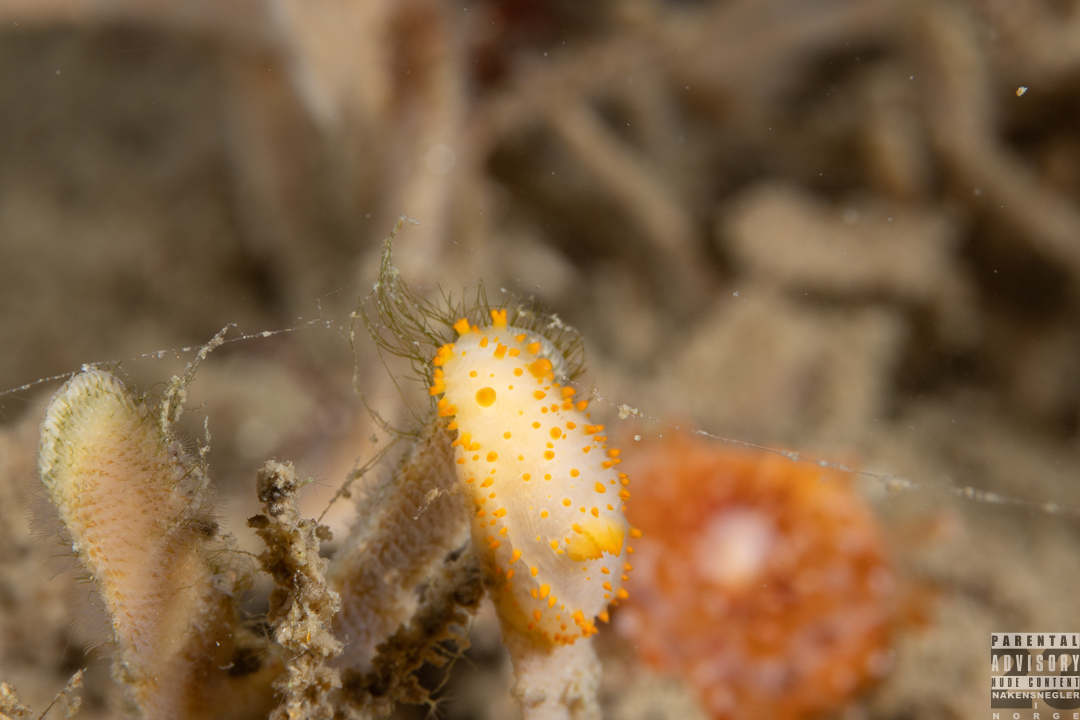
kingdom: Animalia
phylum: Mollusca
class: Gastropoda
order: Nudibranchia
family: Polyceridae
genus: Crimora
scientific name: Crimora papillata
